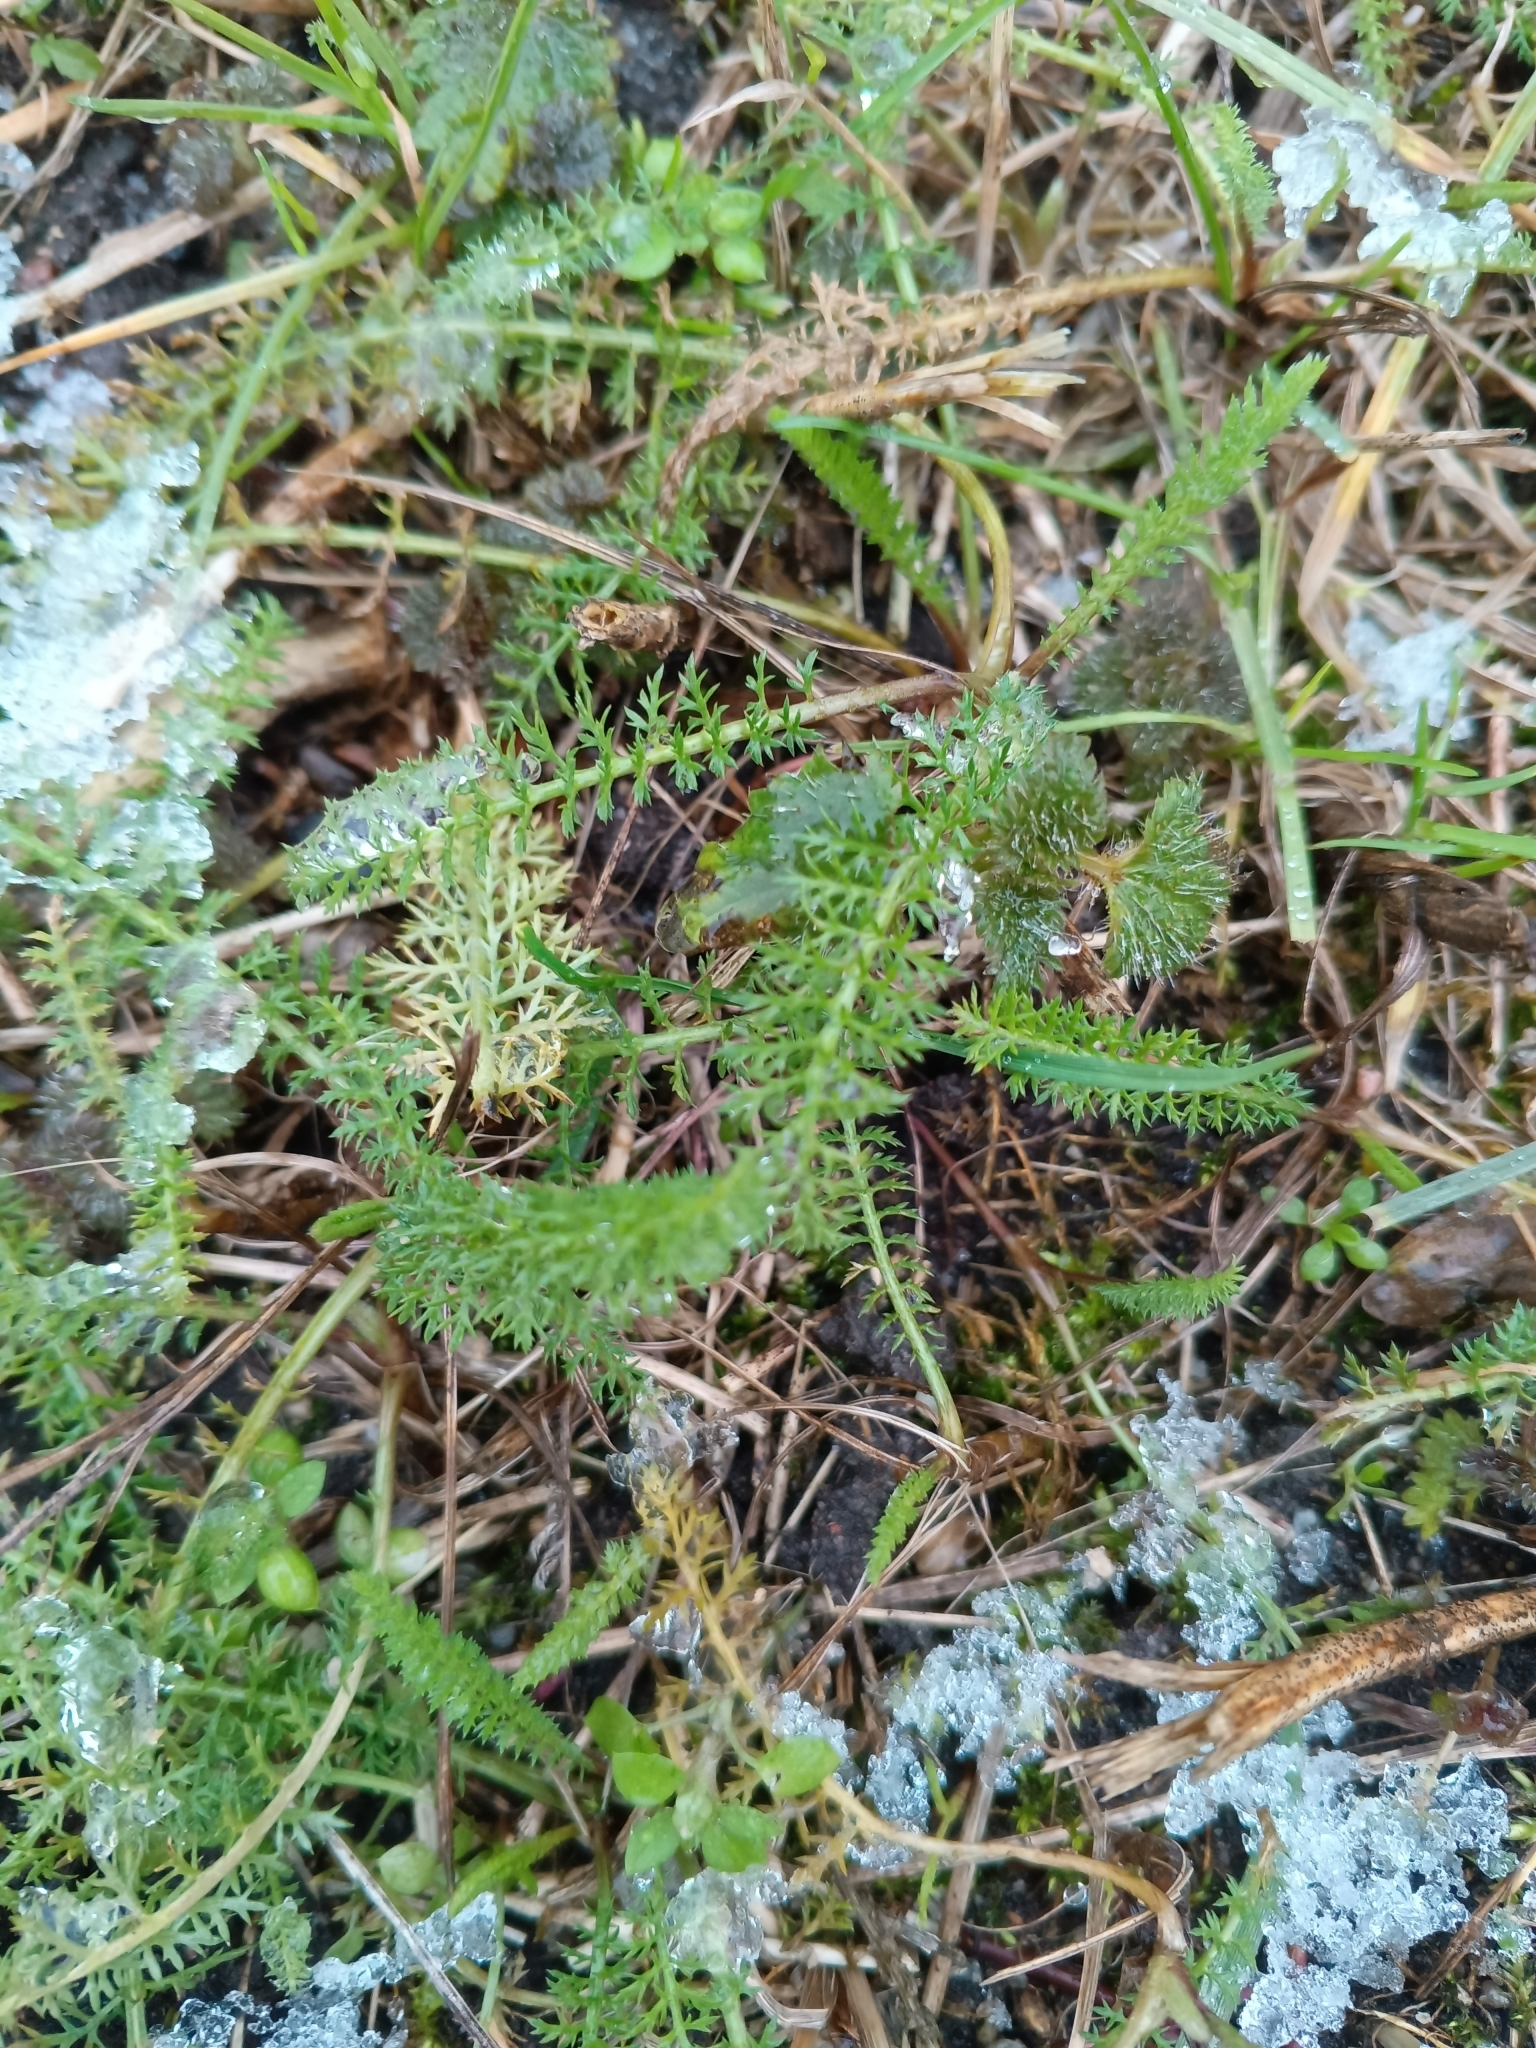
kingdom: Plantae
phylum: Tracheophyta
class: Magnoliopsida
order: Asterales
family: Asteraceae
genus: Achillea
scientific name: Achillea millefolium
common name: Yarrow
